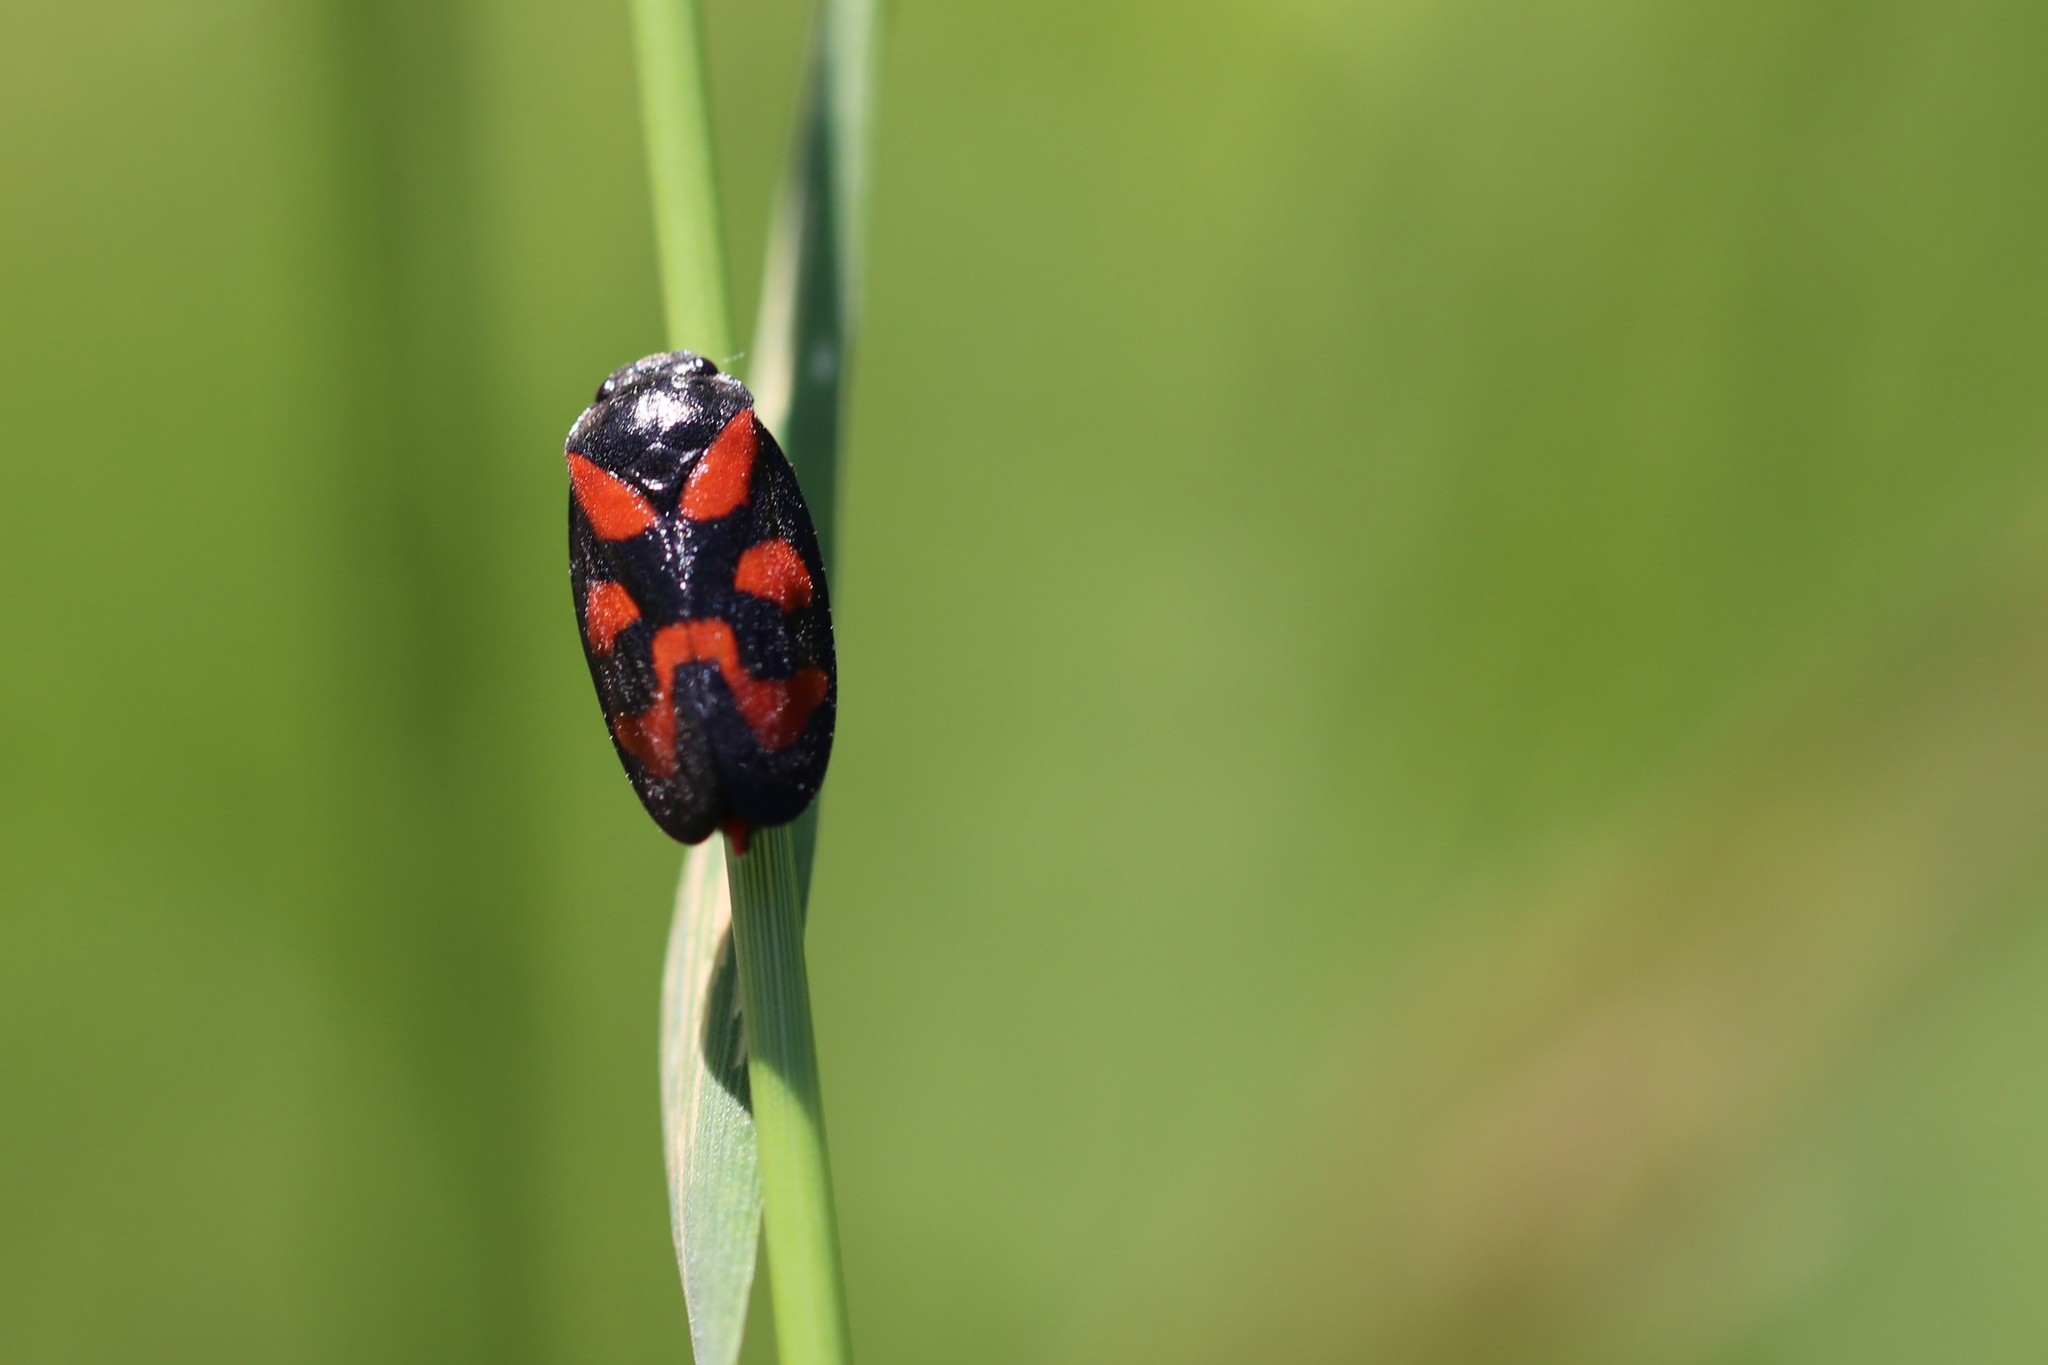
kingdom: Animalia
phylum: Arthropoda
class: Insecta
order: Hemiptera
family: Cercopidae
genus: Cercopis
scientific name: Cercopis vulnerata
